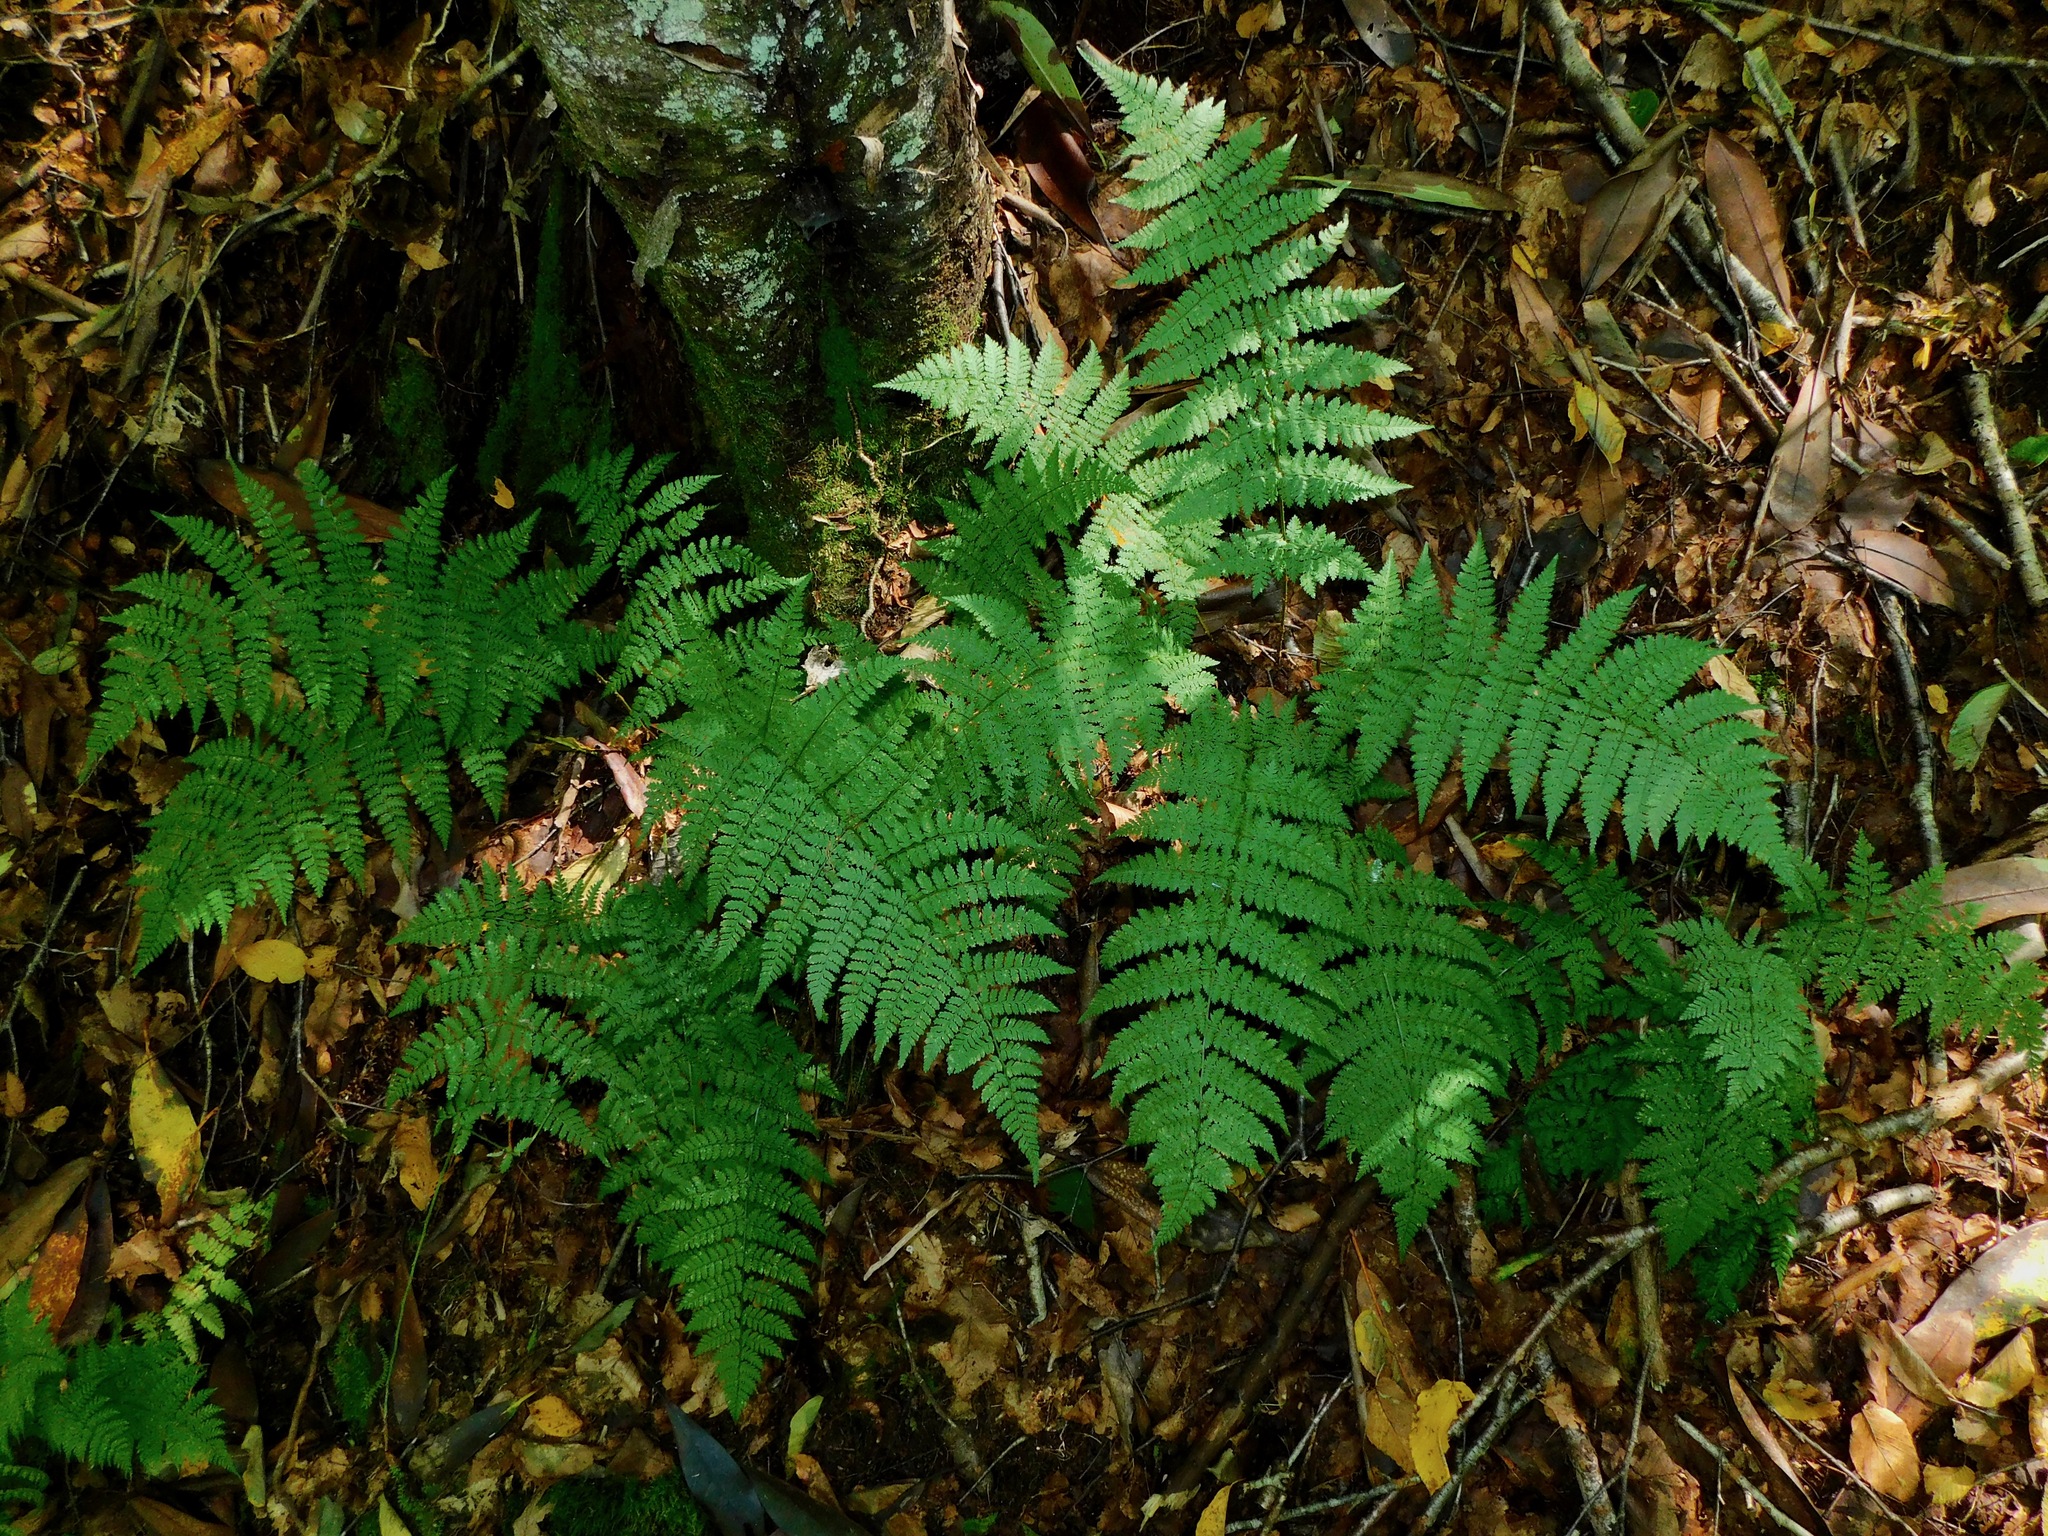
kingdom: Plantae
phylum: Tracheophyta
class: Polypodiopsida
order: Polypodiales
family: Dryopteridaceae
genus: Dryopteris
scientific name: Dryopteris intermedia
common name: Evergreen wood fern
